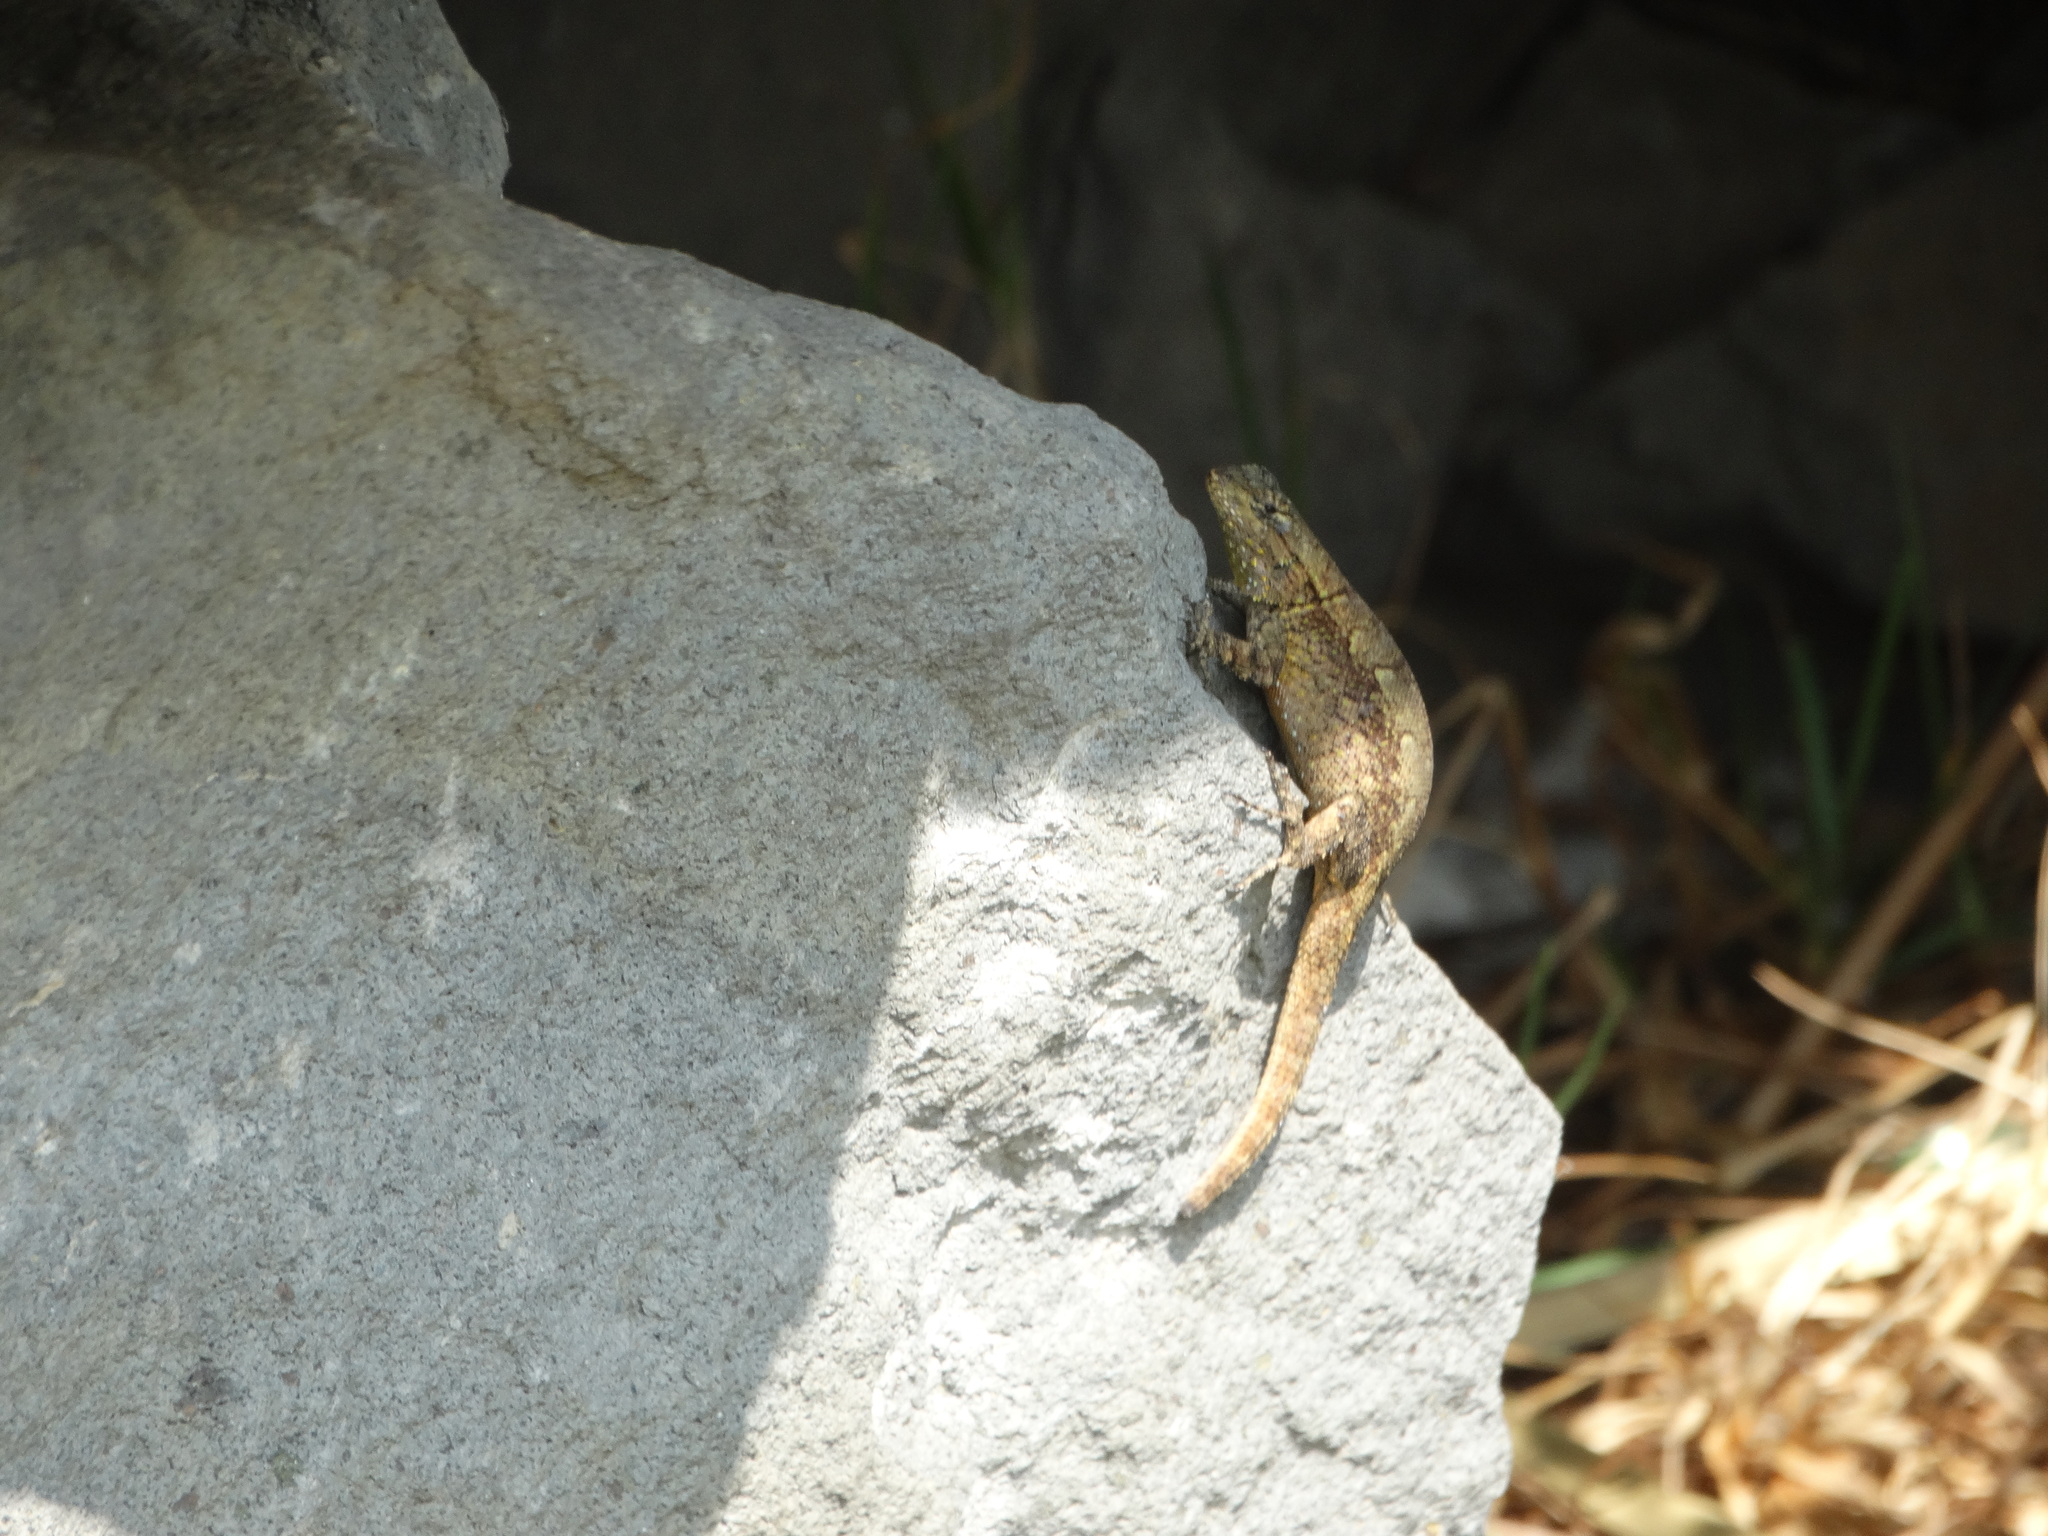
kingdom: Animalia
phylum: Chordata
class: Squamata
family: Phrynosomatidae
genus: Sceloporus
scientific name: Sceloporus grammicus
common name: Mesquite lizard
